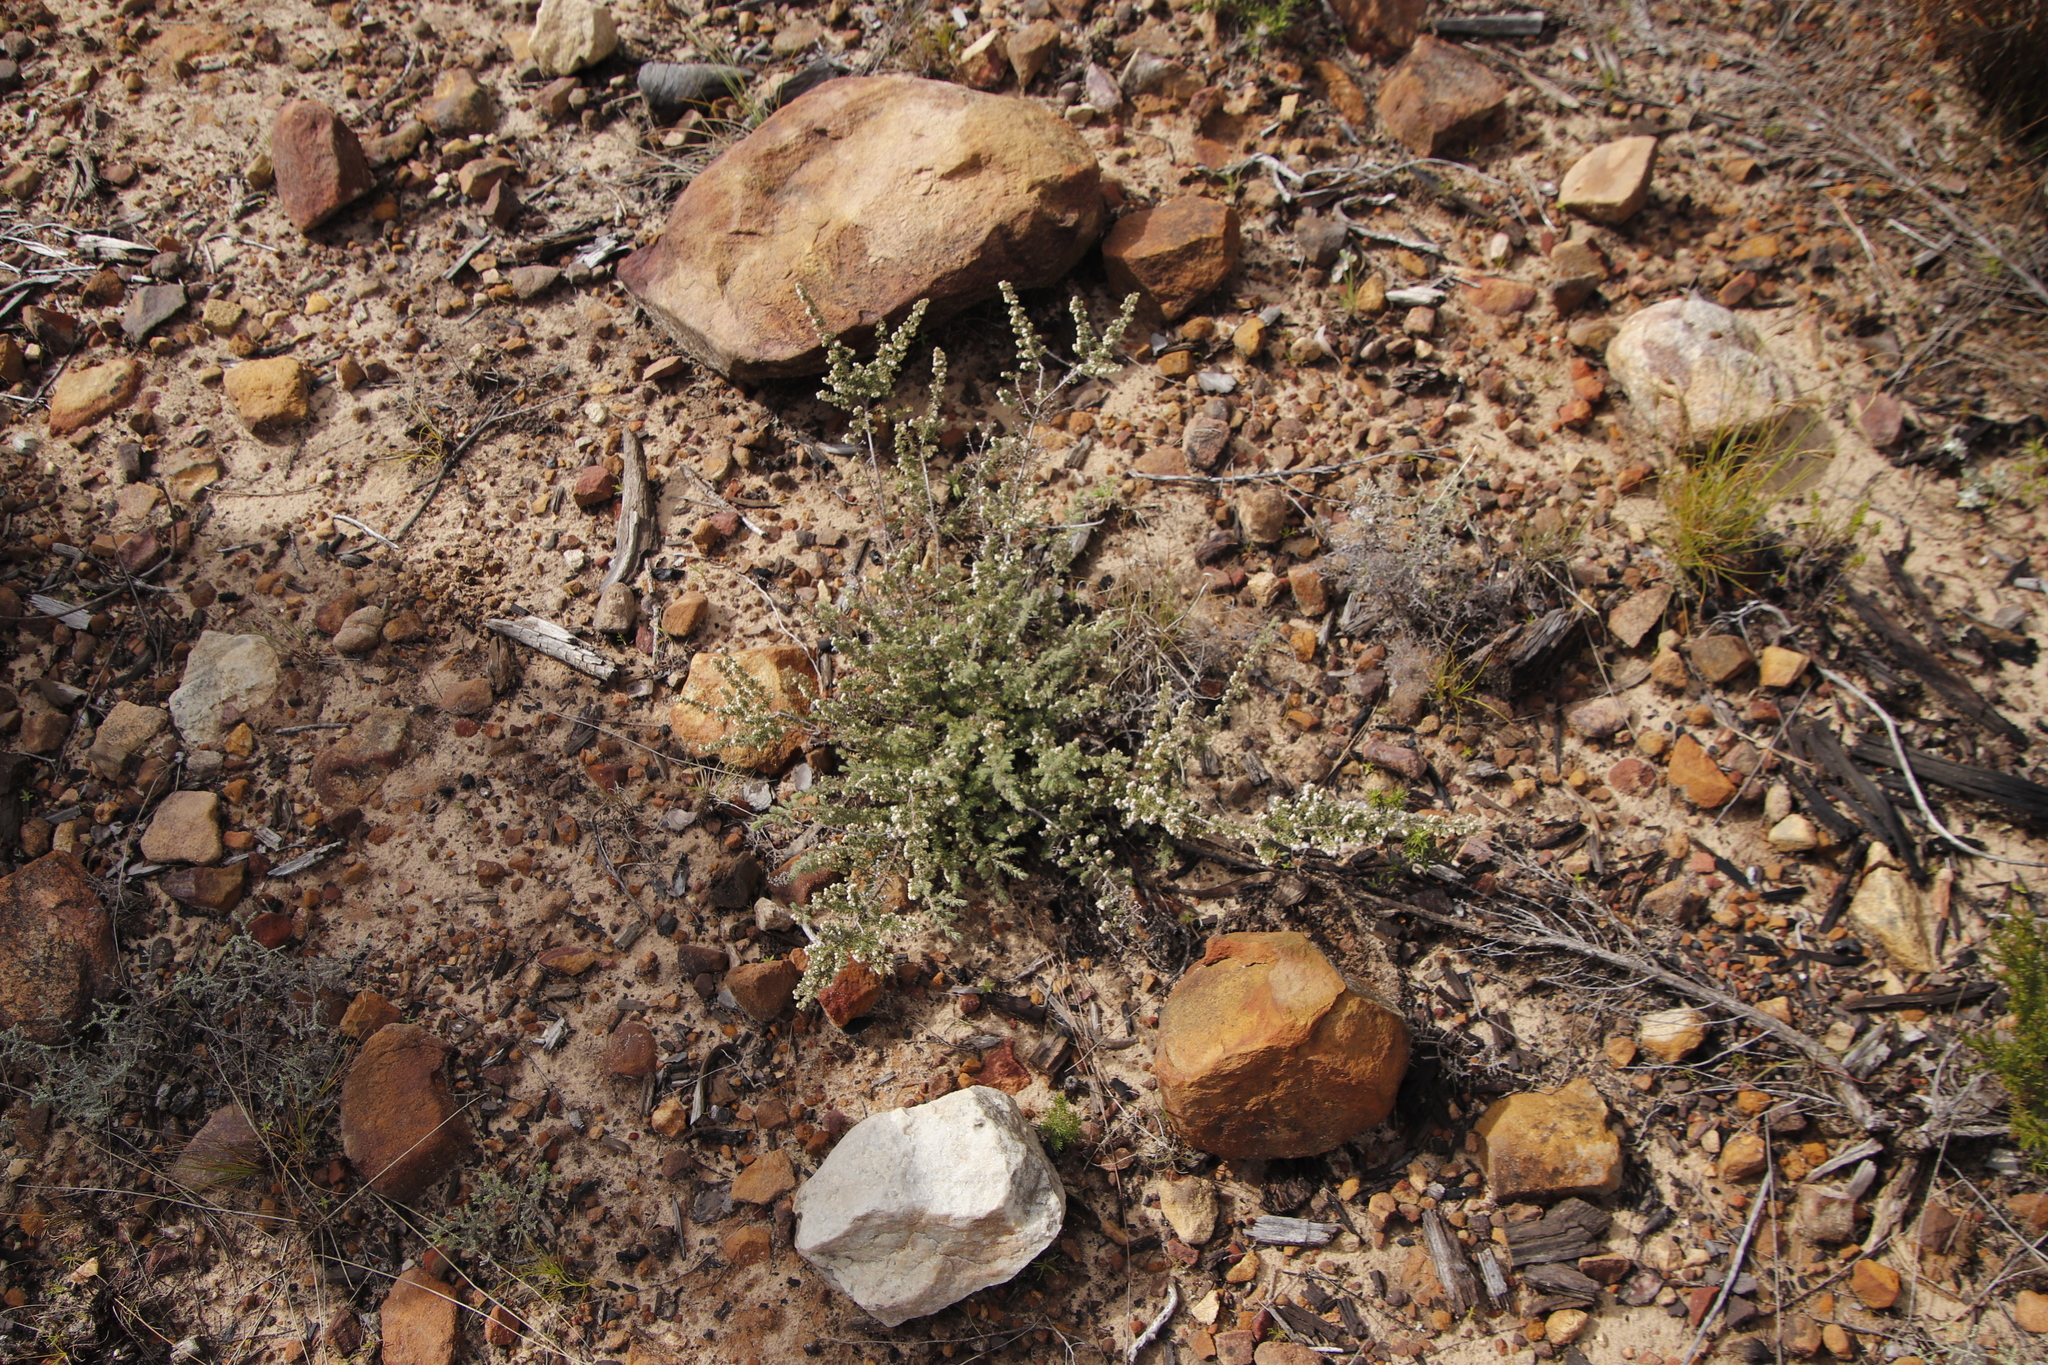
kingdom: Plantae
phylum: Tracheophyta
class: Magnoliopsida
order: Ericales
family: Ericaceae
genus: Erica
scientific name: Erica totta
